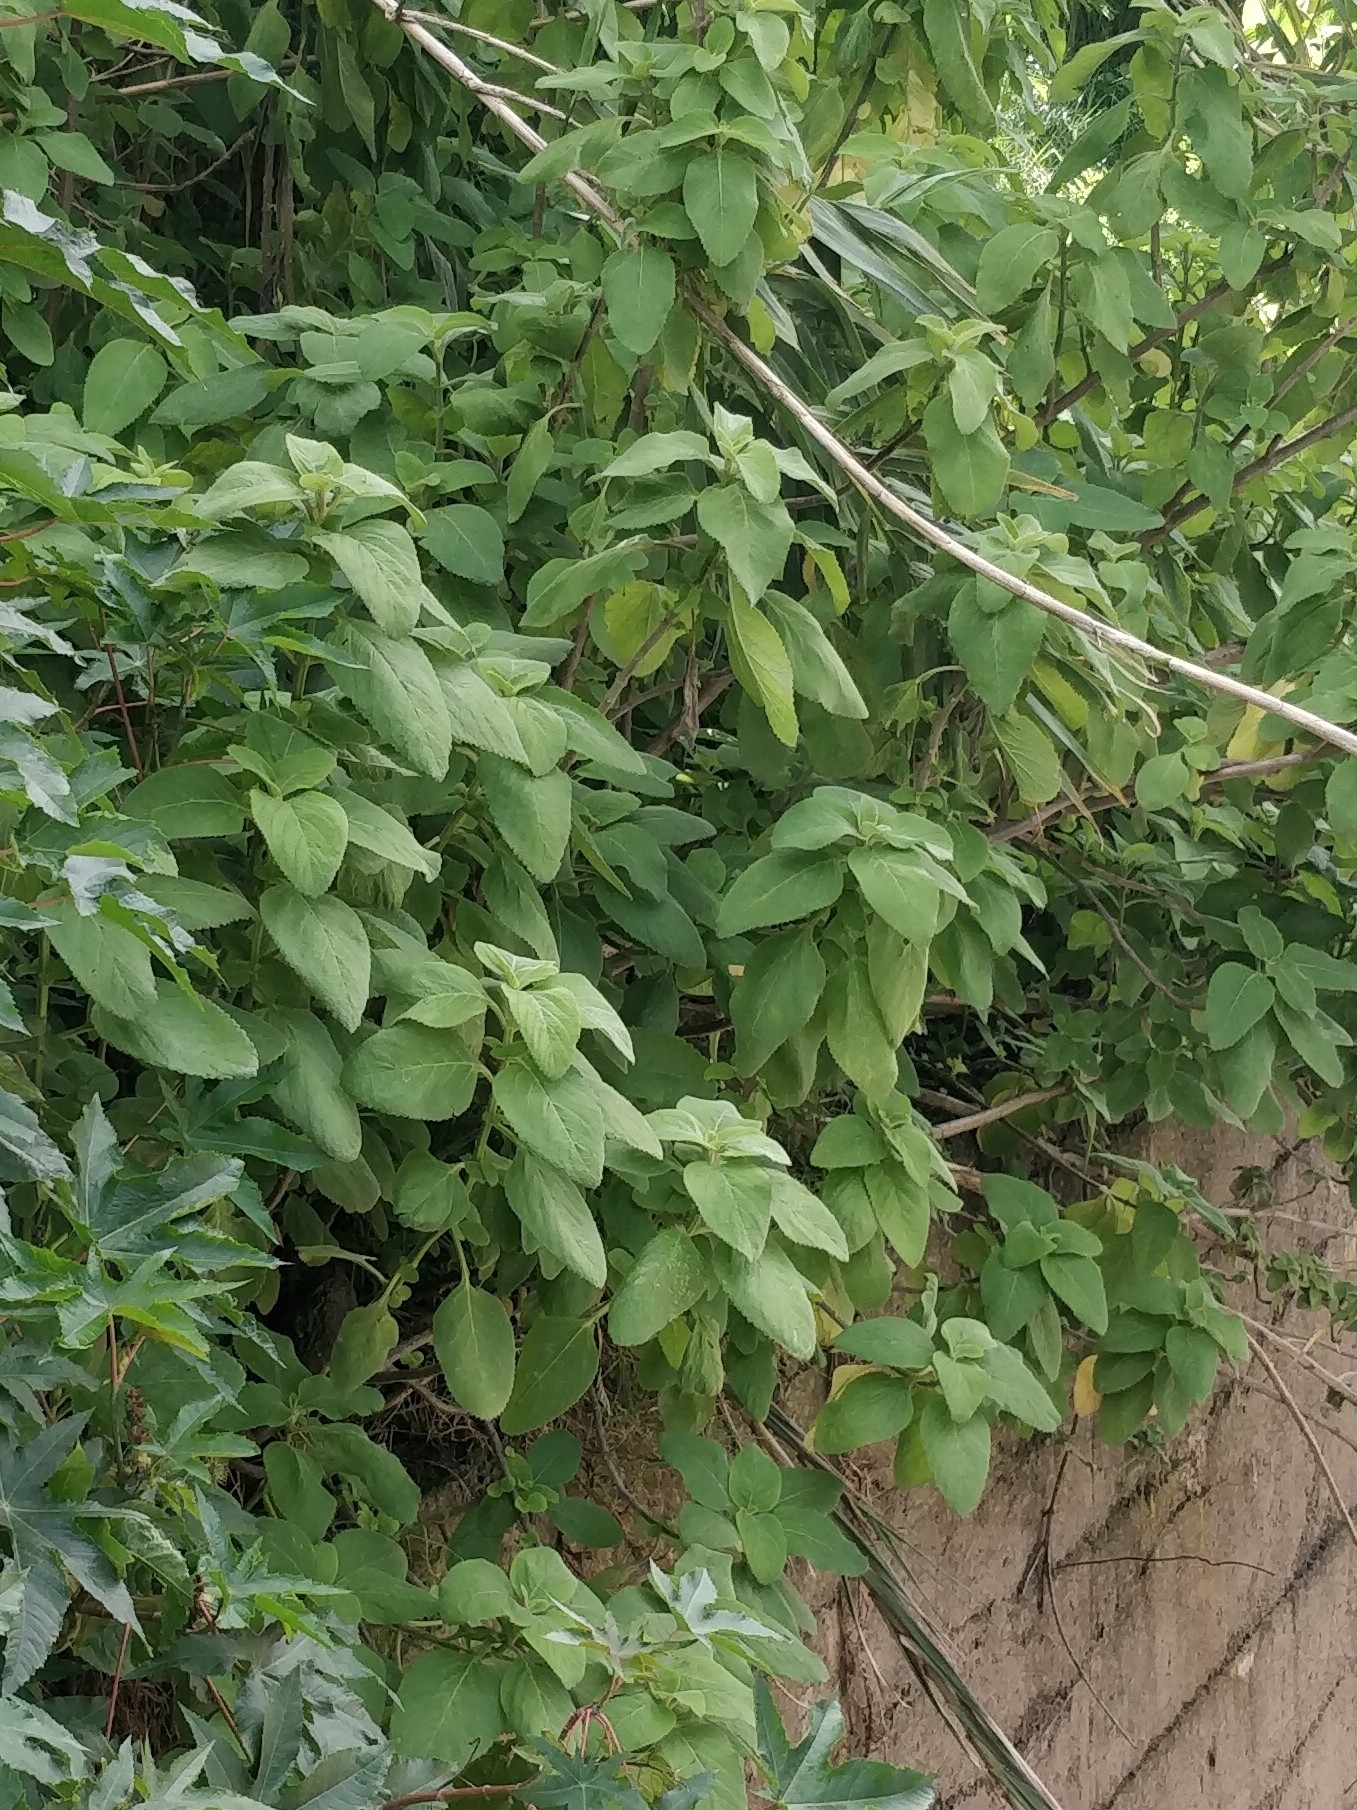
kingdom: Plantae
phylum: Tracheophyta
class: Magnoliopsida
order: Lamiales
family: Lamiaceae
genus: Coleus
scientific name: Coleus barbatus
